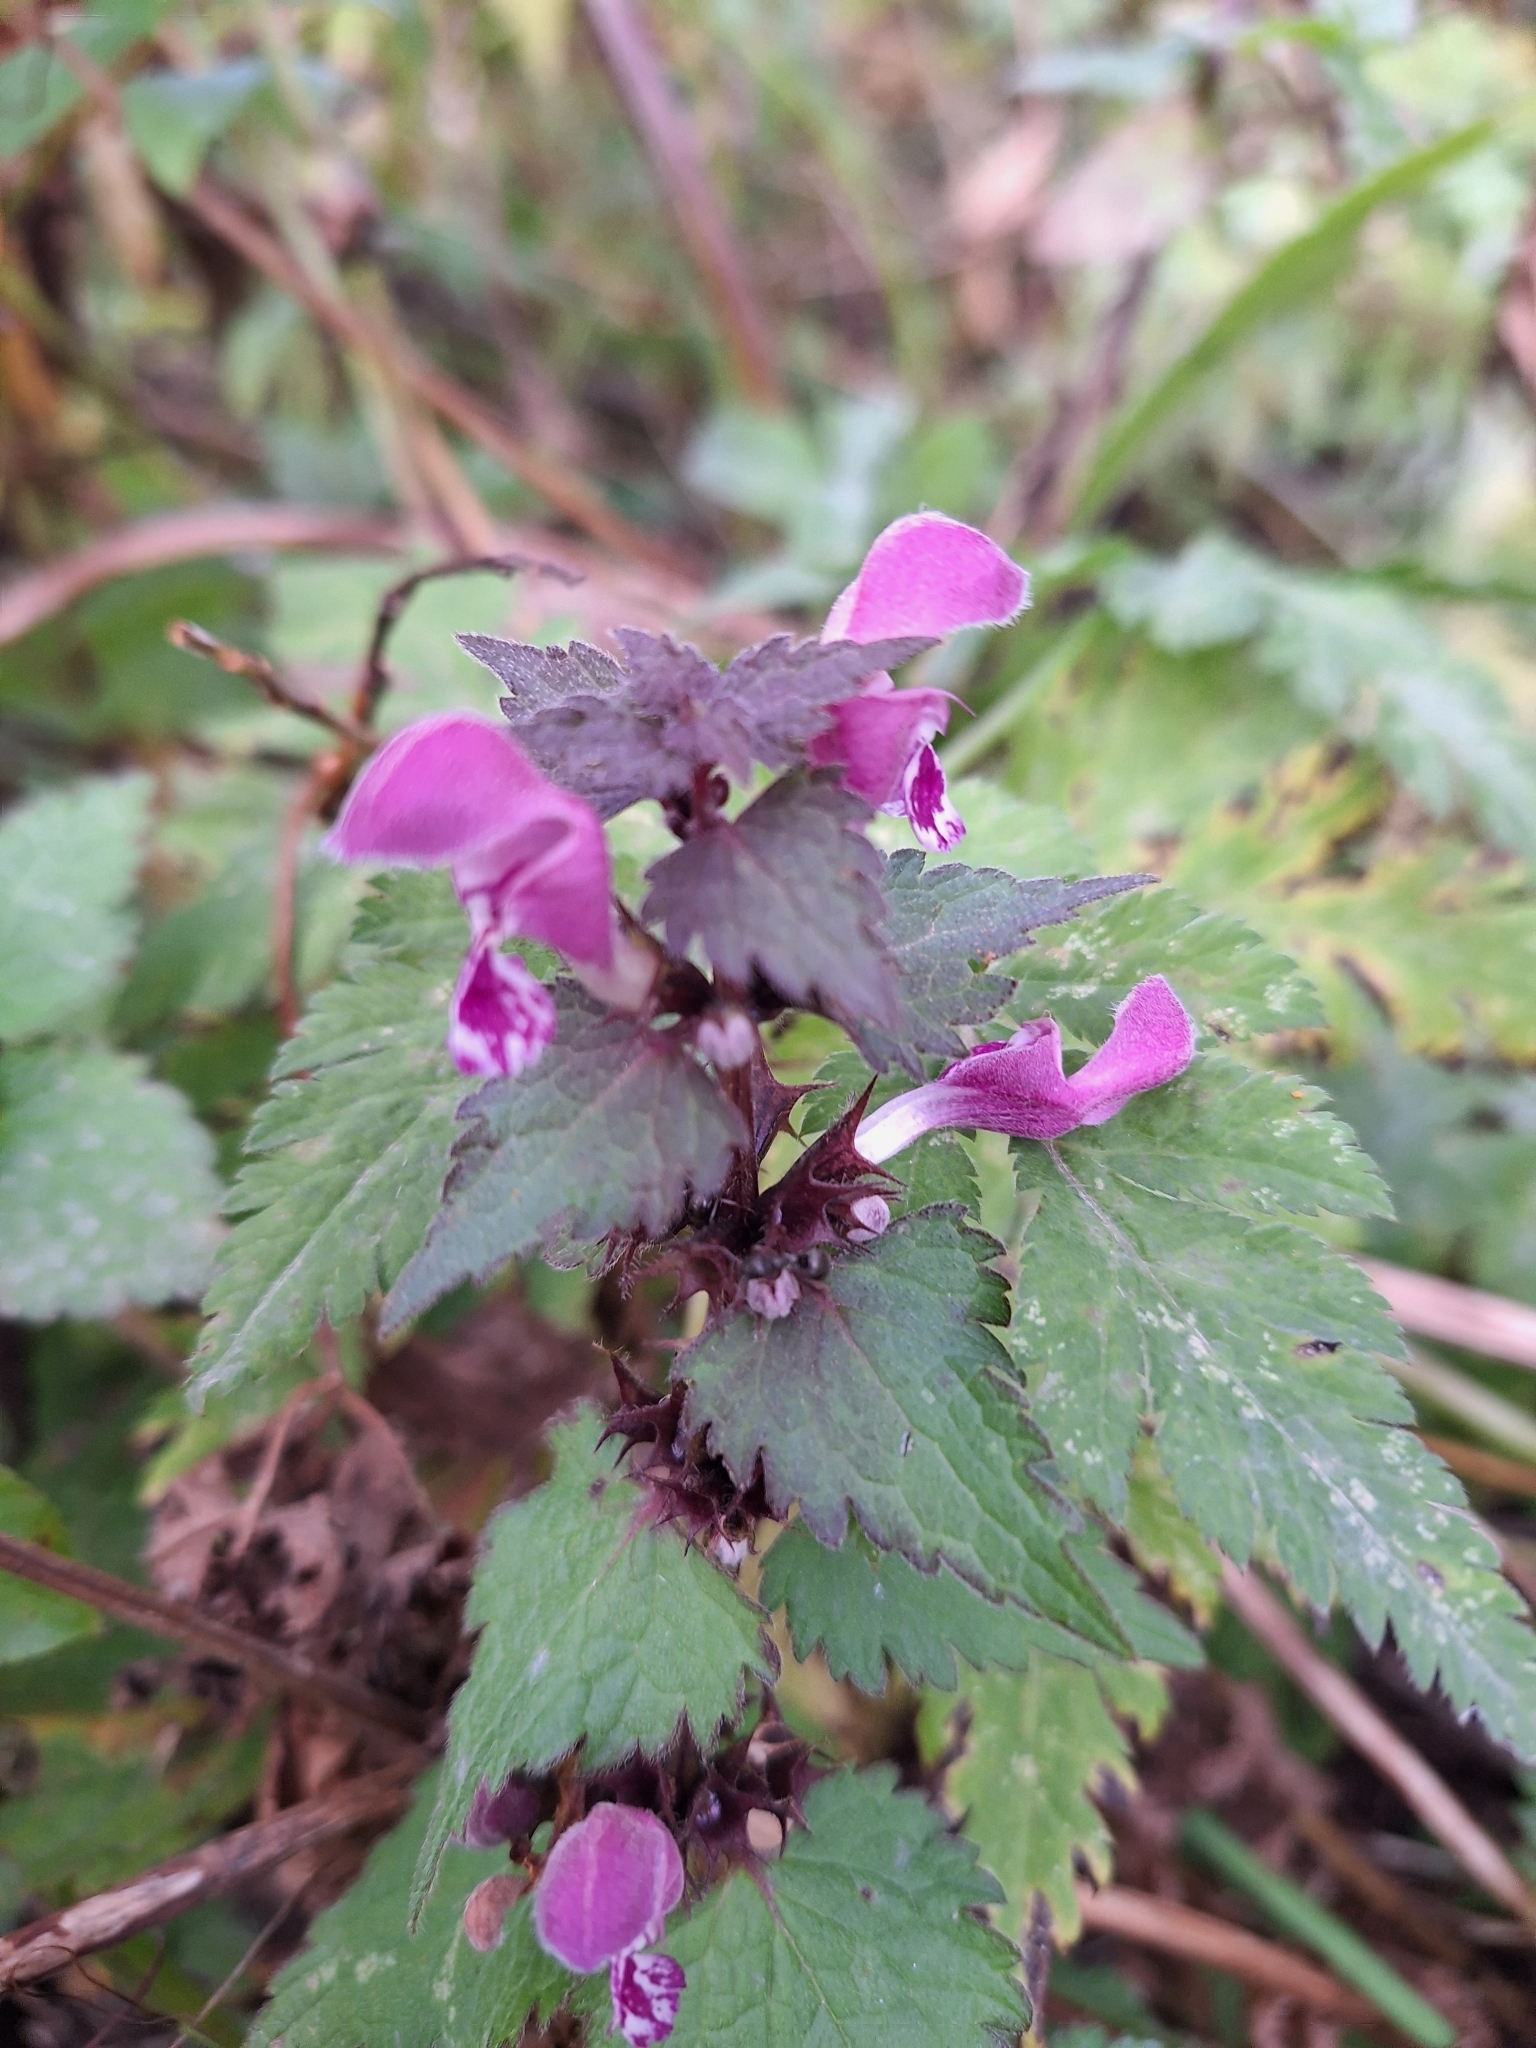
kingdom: Plantae
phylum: Tracheophyta
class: Magnoliopsida
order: Lamiales
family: Lamiaceae
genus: Lamium
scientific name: Lamium maculatum
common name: Spotted dead-nettle
